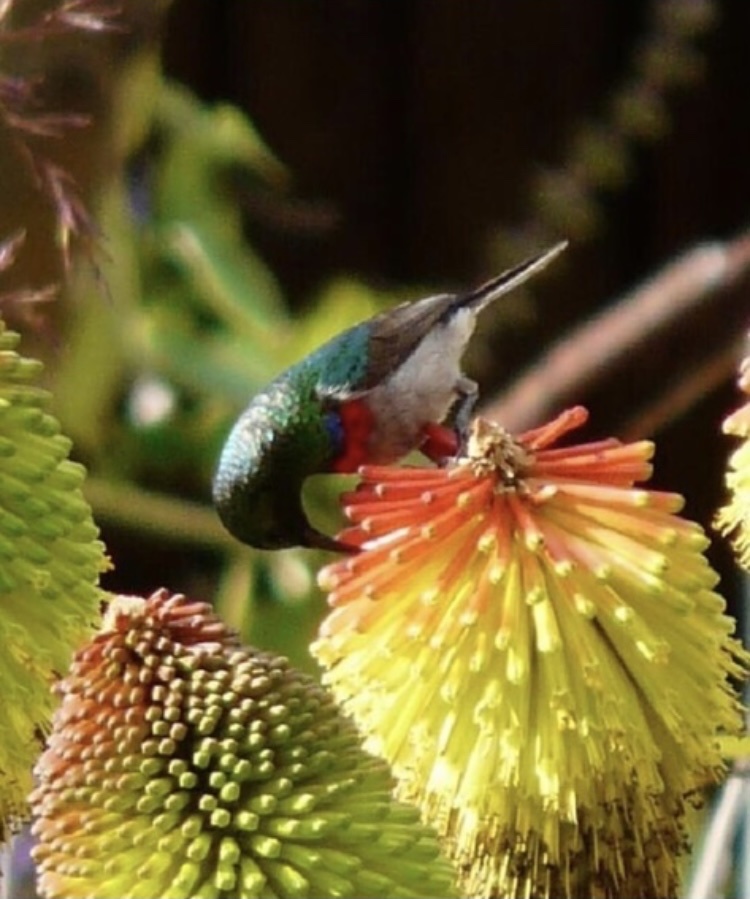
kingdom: Animalia
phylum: Chordata
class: Aves
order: Passeriformes
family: Nectariniidae
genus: Cinnyris
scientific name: Cinnyris chalybeus
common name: Southern double-collared sunbird
